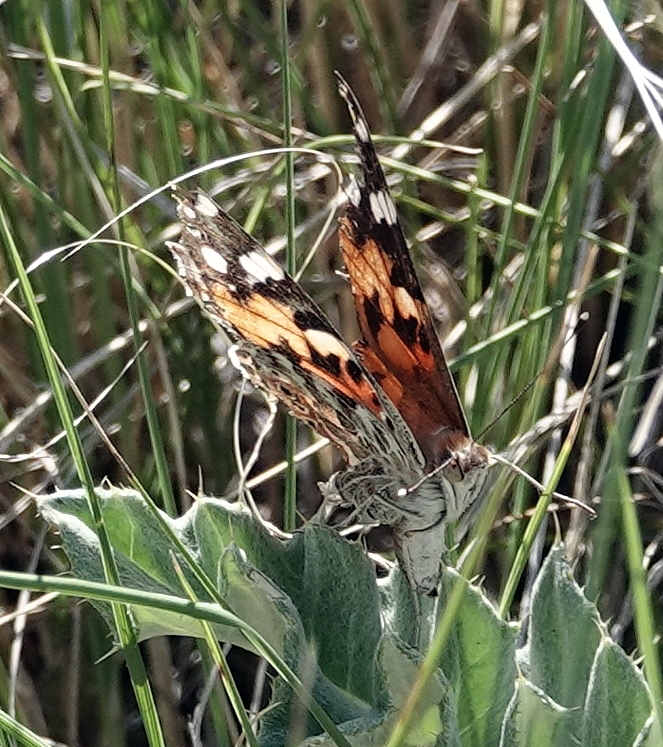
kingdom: Animalia
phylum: Arthropoda
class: Insecta
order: Lepidoptera
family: Nymphalidae
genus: Vanessa
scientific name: Vanessa cardui
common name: Painted lady
